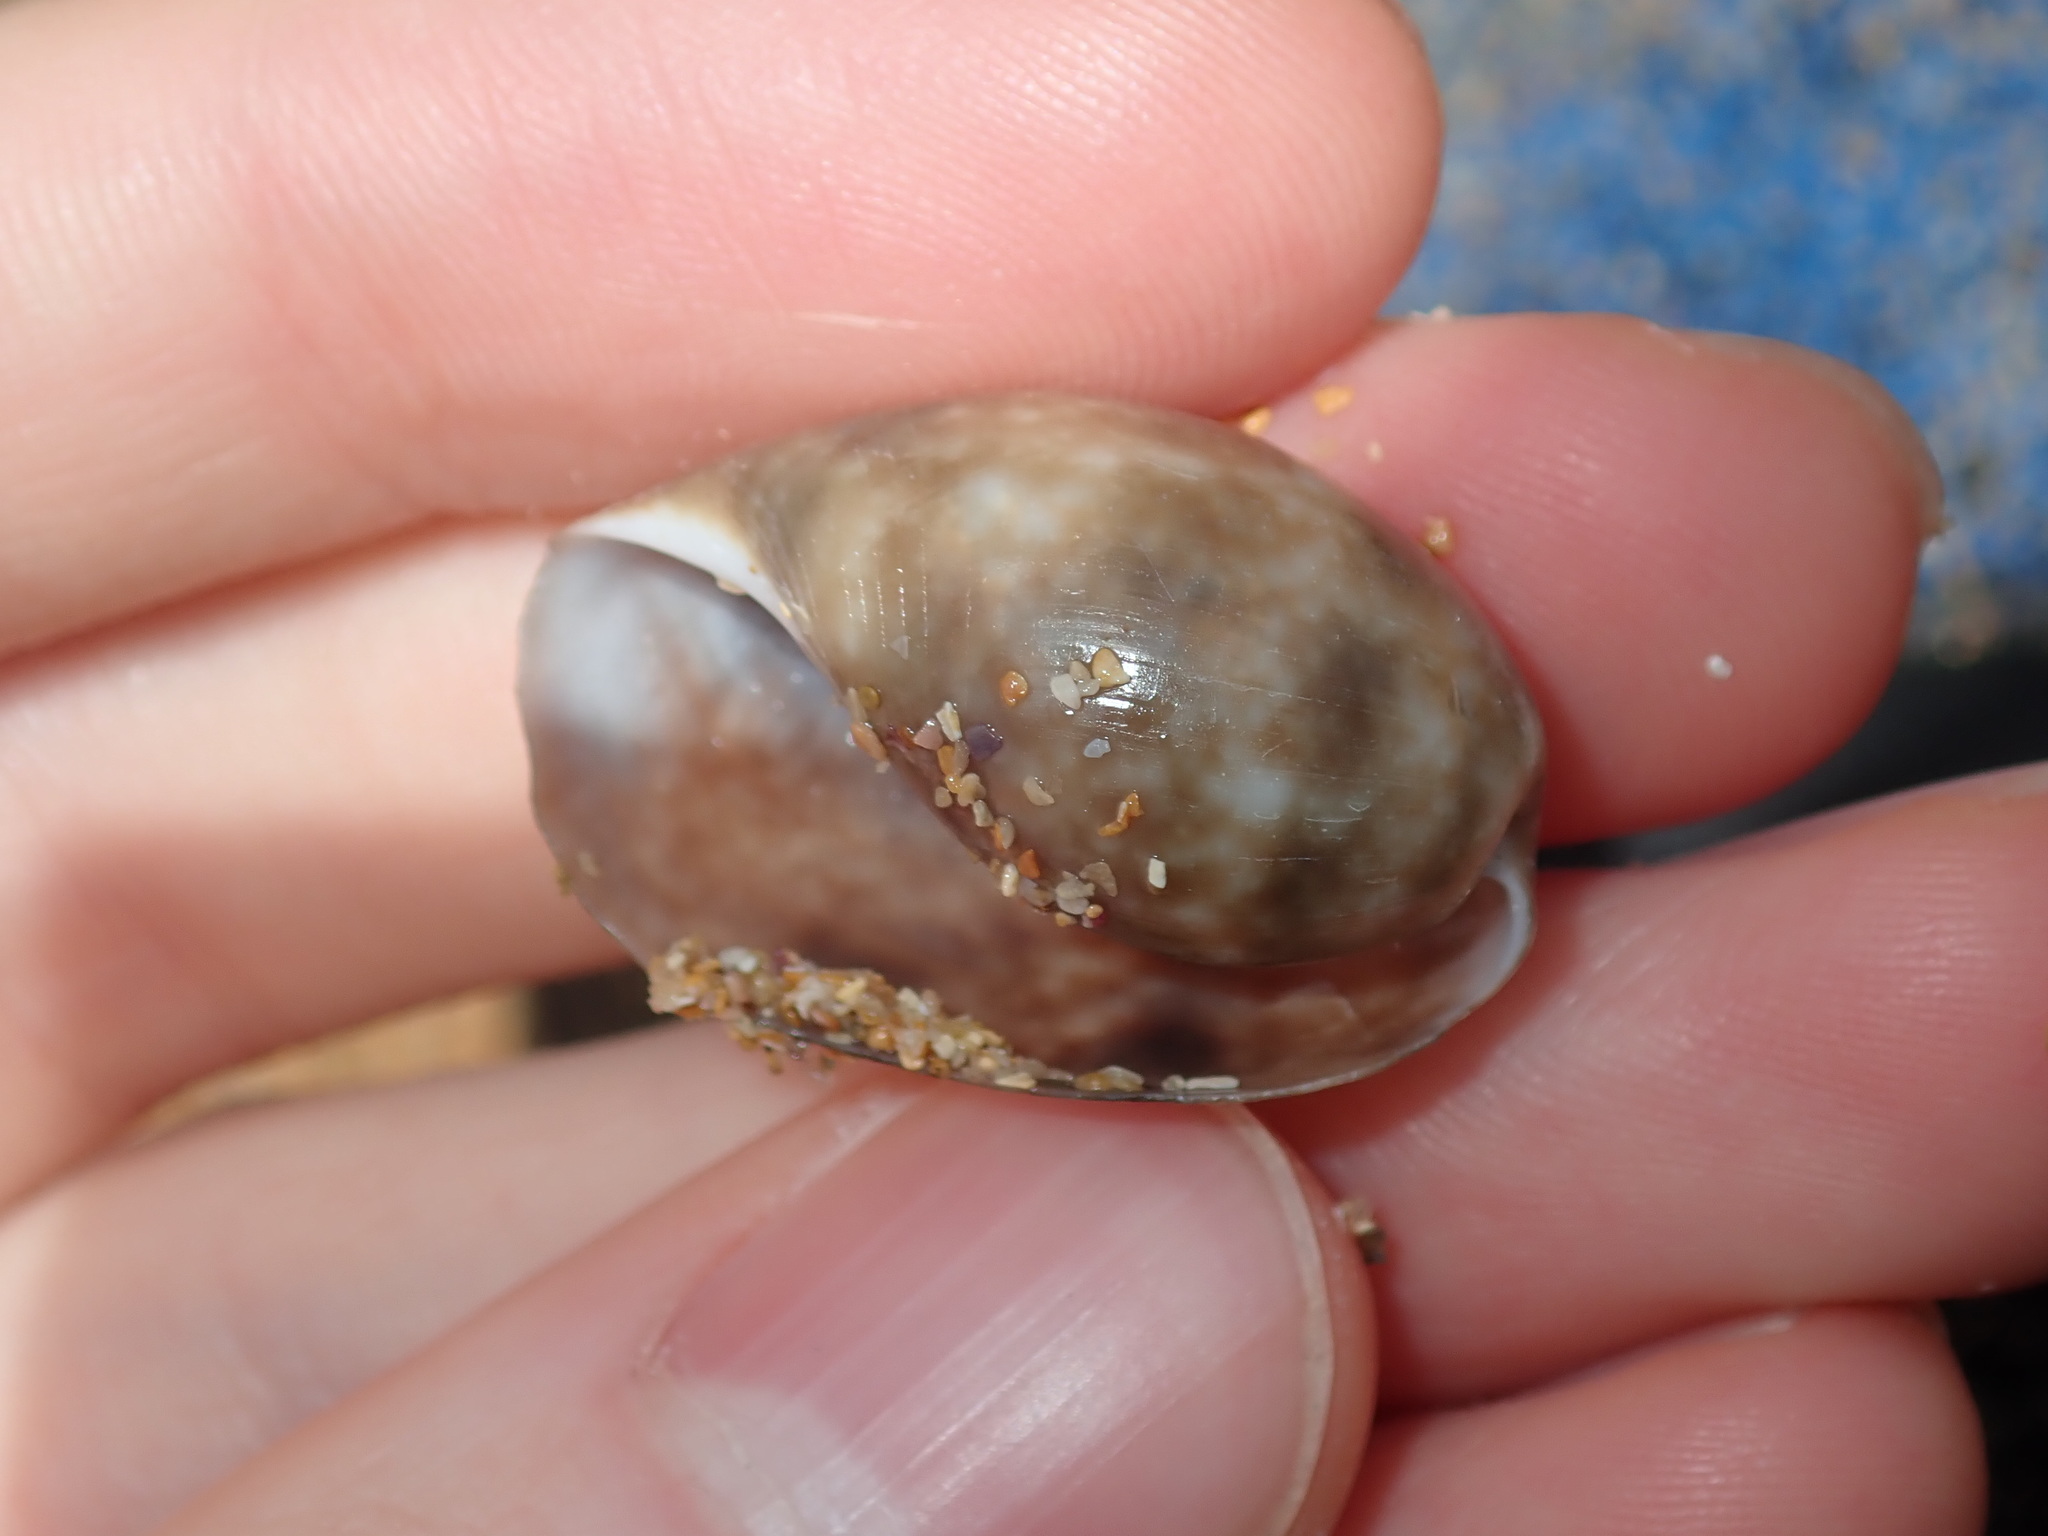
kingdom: Animalia
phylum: Mollusca
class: Gastropoda
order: Cephalaspidea
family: Bullidae
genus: Bulla
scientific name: Bulla quoyii
